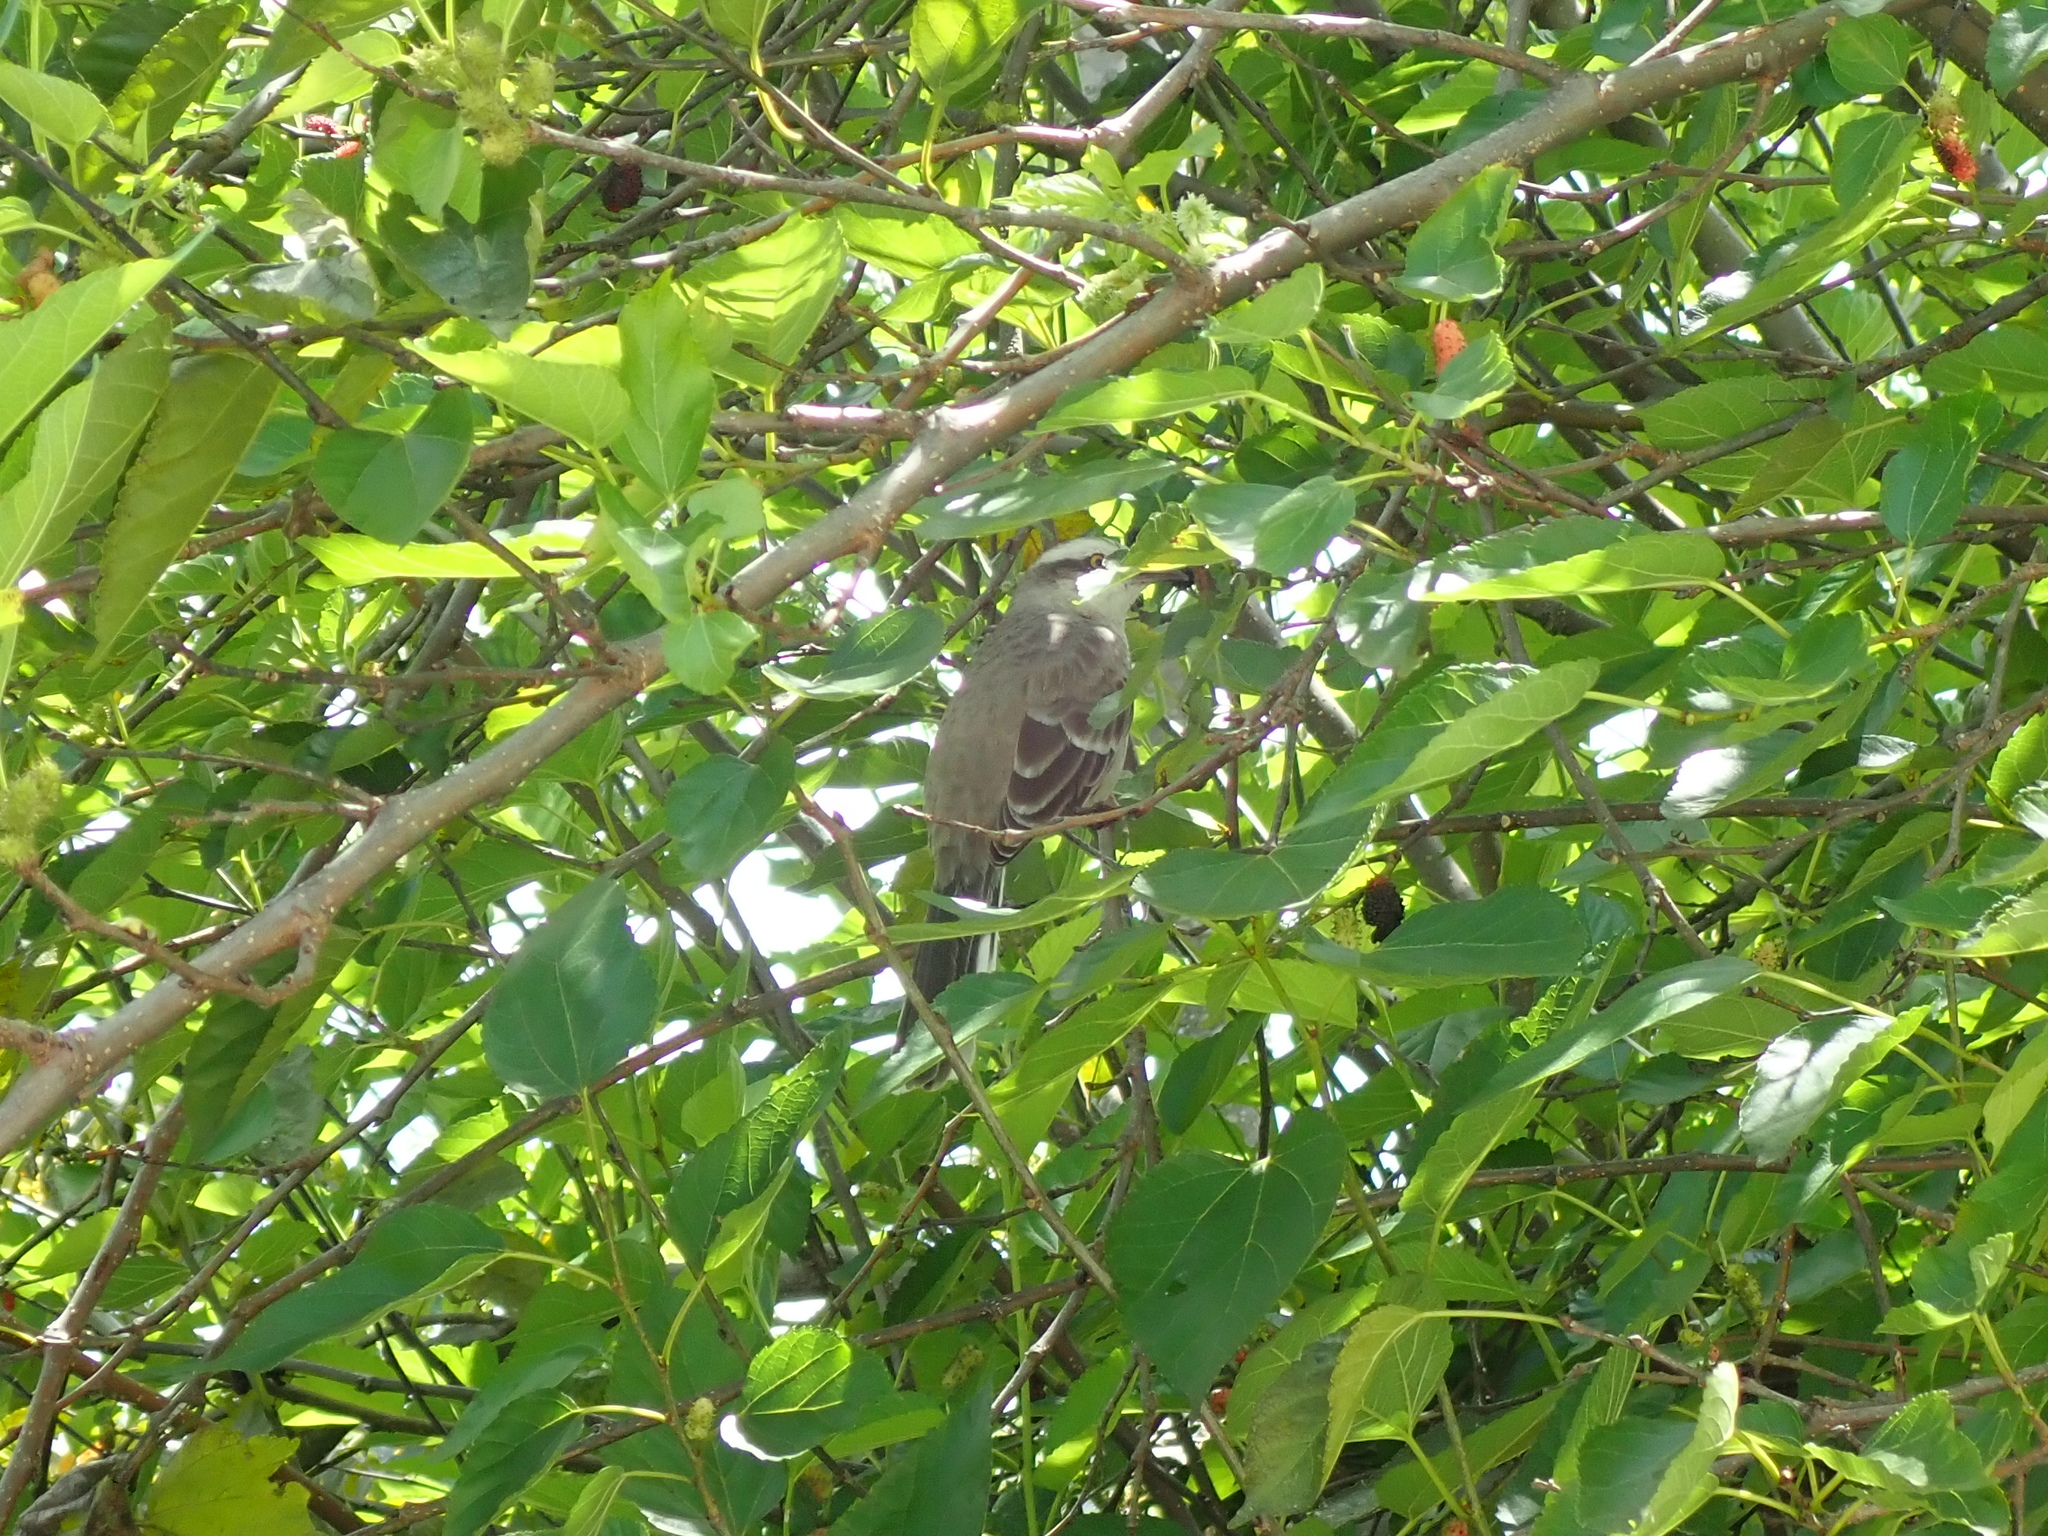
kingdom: Animalia
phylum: Chordata
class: Aves
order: Passeriformes
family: Mimidae
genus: Mimus
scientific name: Mimus saturninus
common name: Chalk-browed mockingbird
